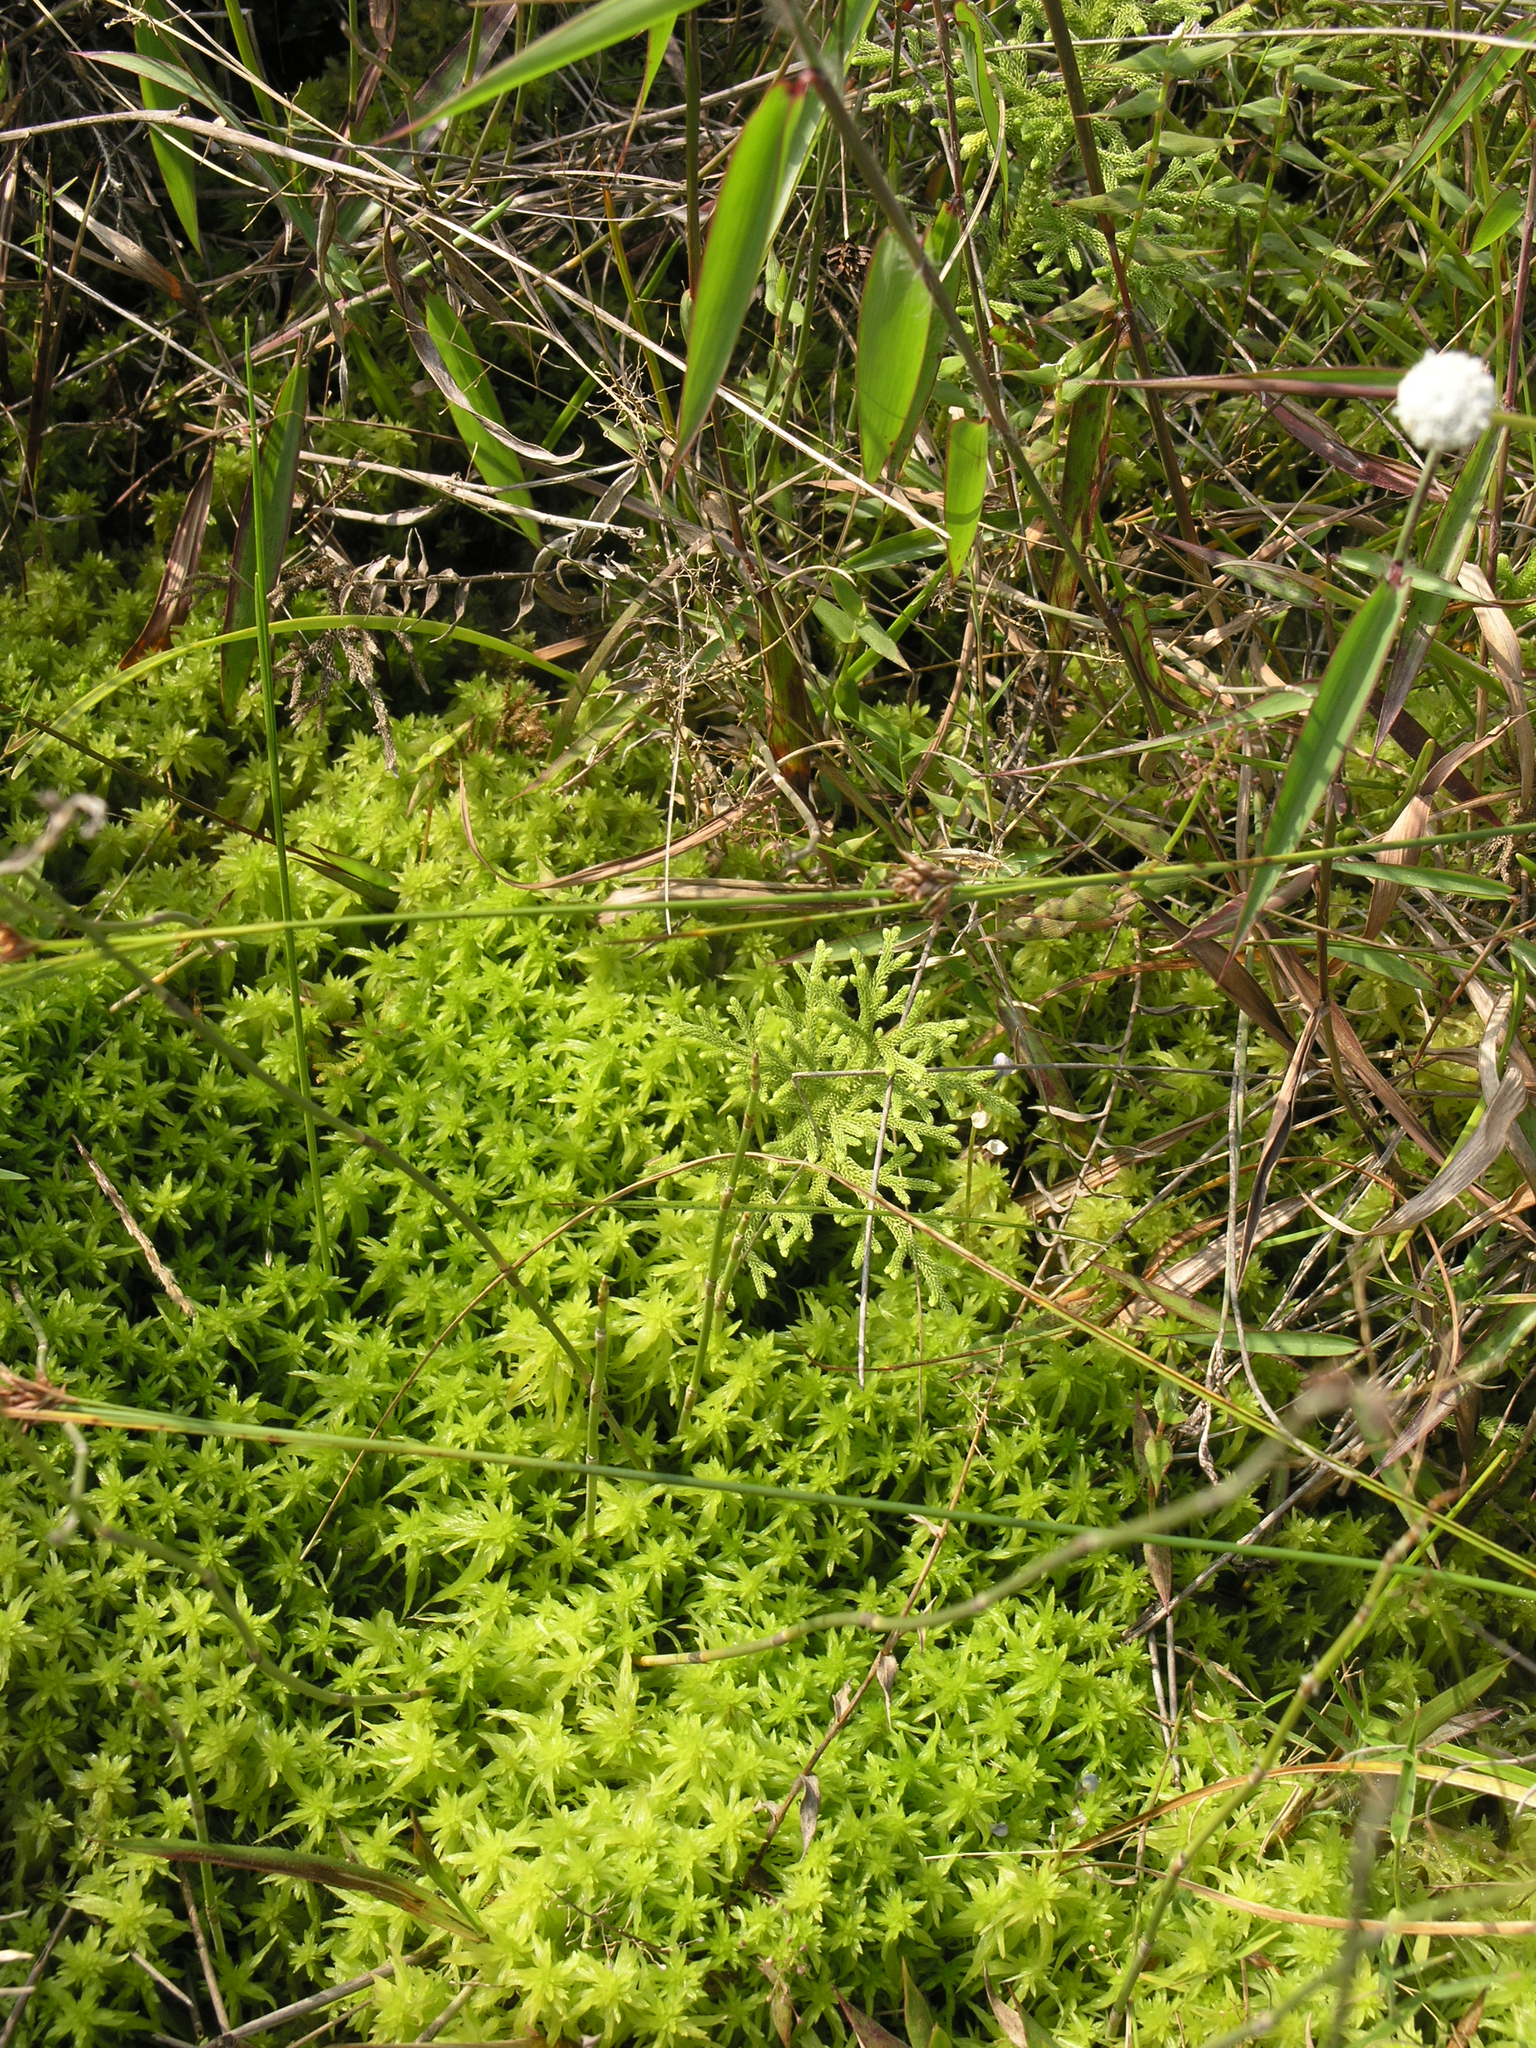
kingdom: Plantae
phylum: Bryophyta
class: Sphagnopsida
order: Sphagnales
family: Sphagnaceae
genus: Sphagnum
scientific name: Sphagnum cuspidatum
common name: Feathery peat moss
